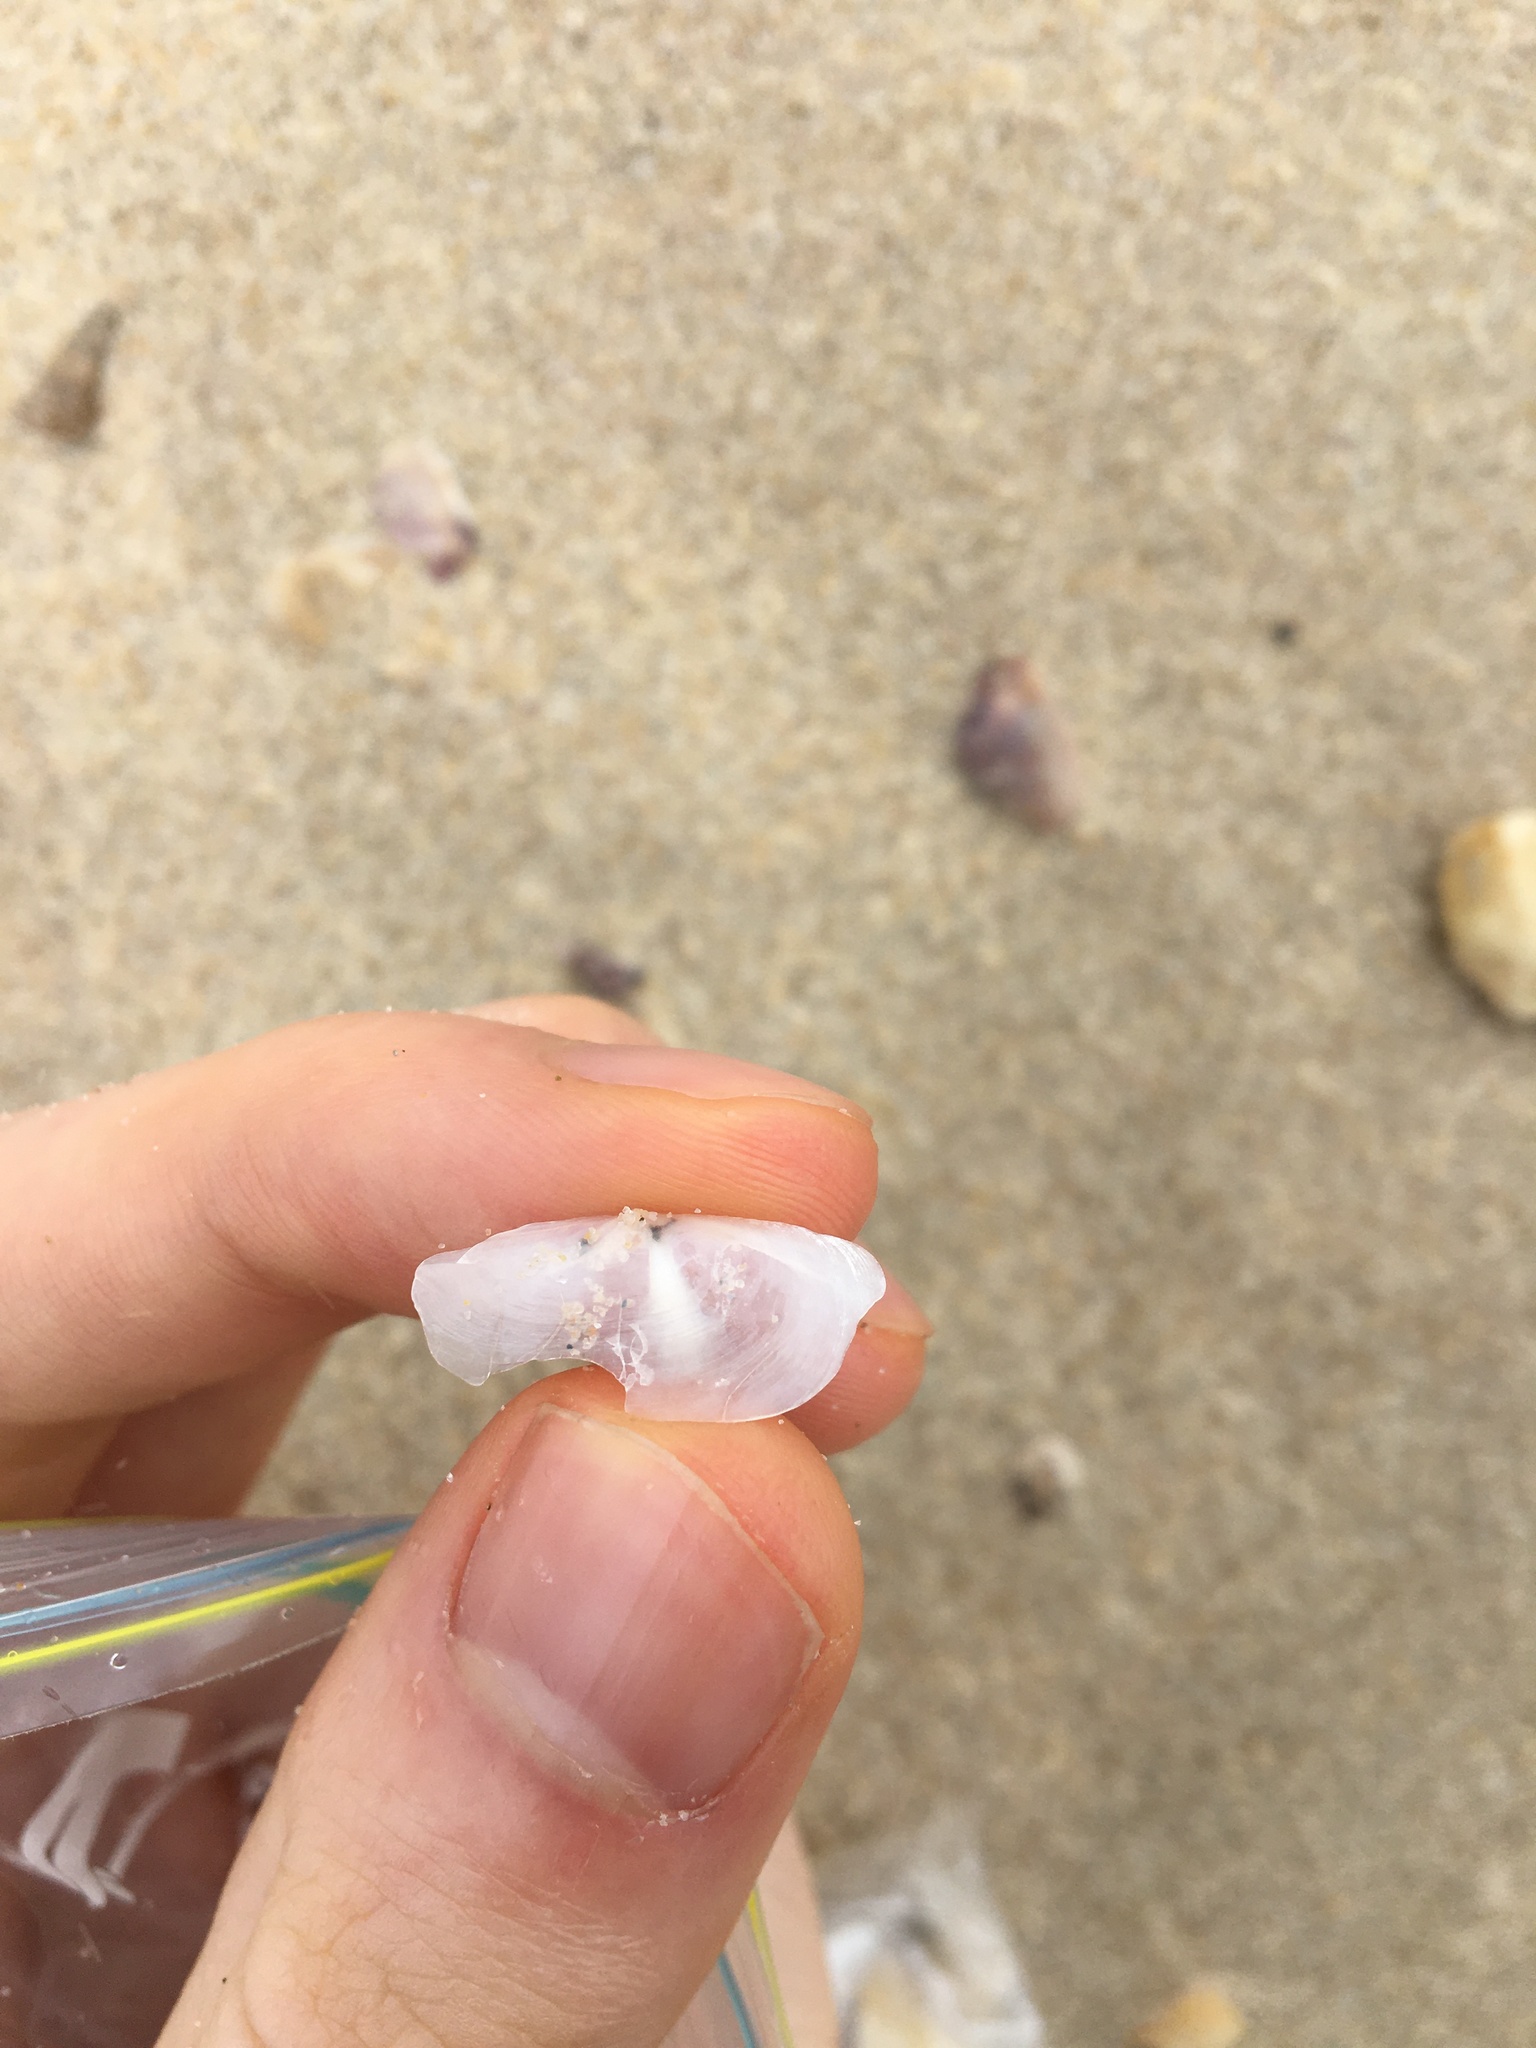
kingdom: Animalia
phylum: Mollusca
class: Bivalvia
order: Venerida
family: Mactridae
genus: Zenatina
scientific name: Zenatina victoriae
